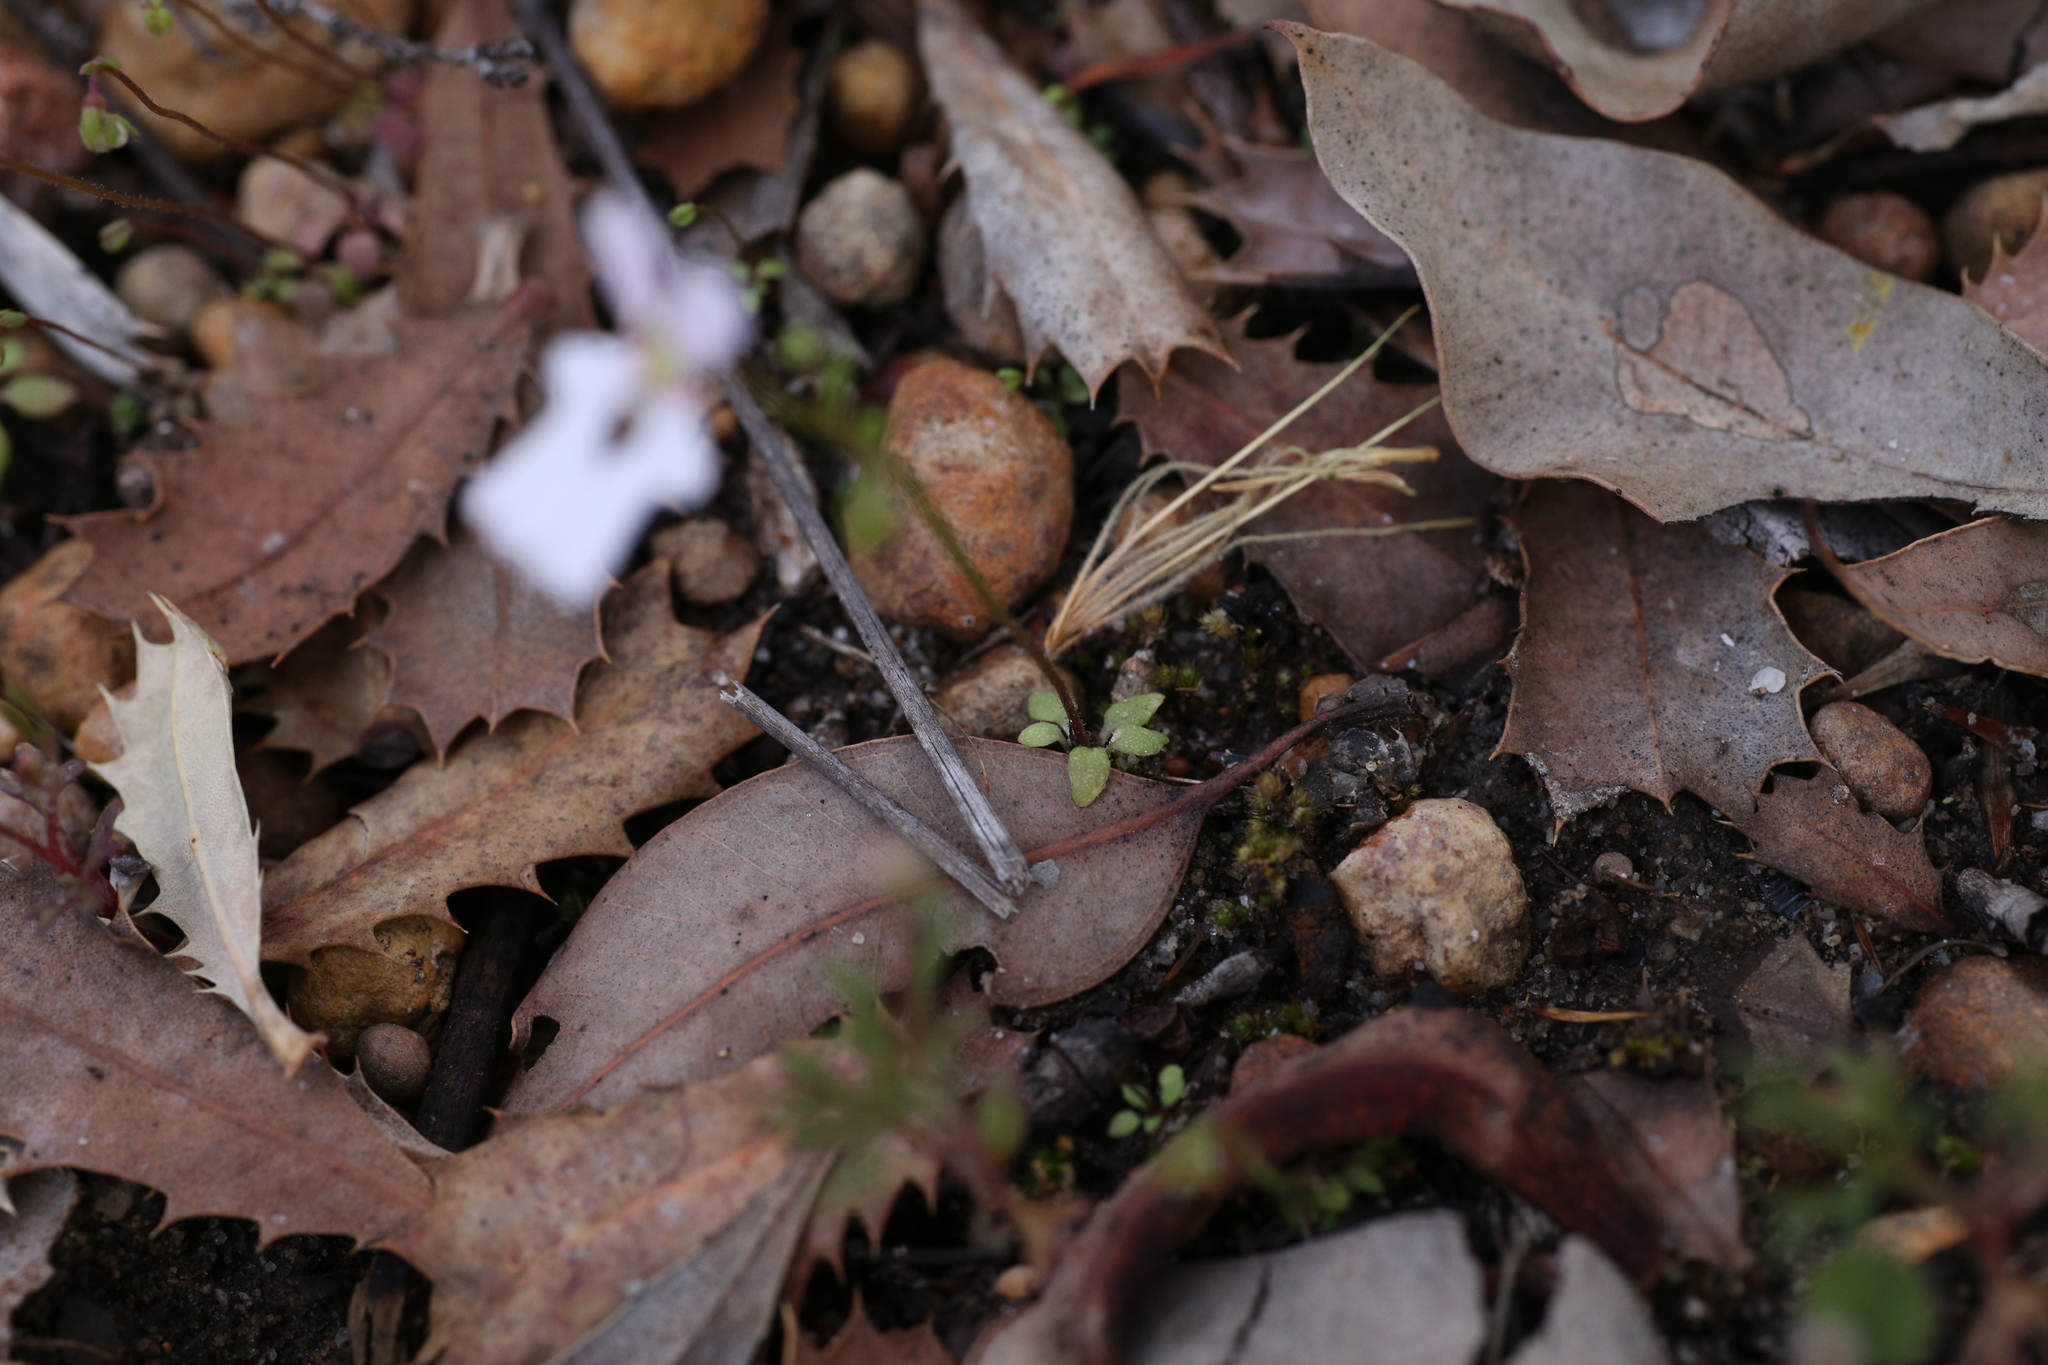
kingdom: Plantae
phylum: Tracheophyta
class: Magnoliopsida
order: Asterales
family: Stylidiaceae
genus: Stylidium
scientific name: Stylidium androsaceum
